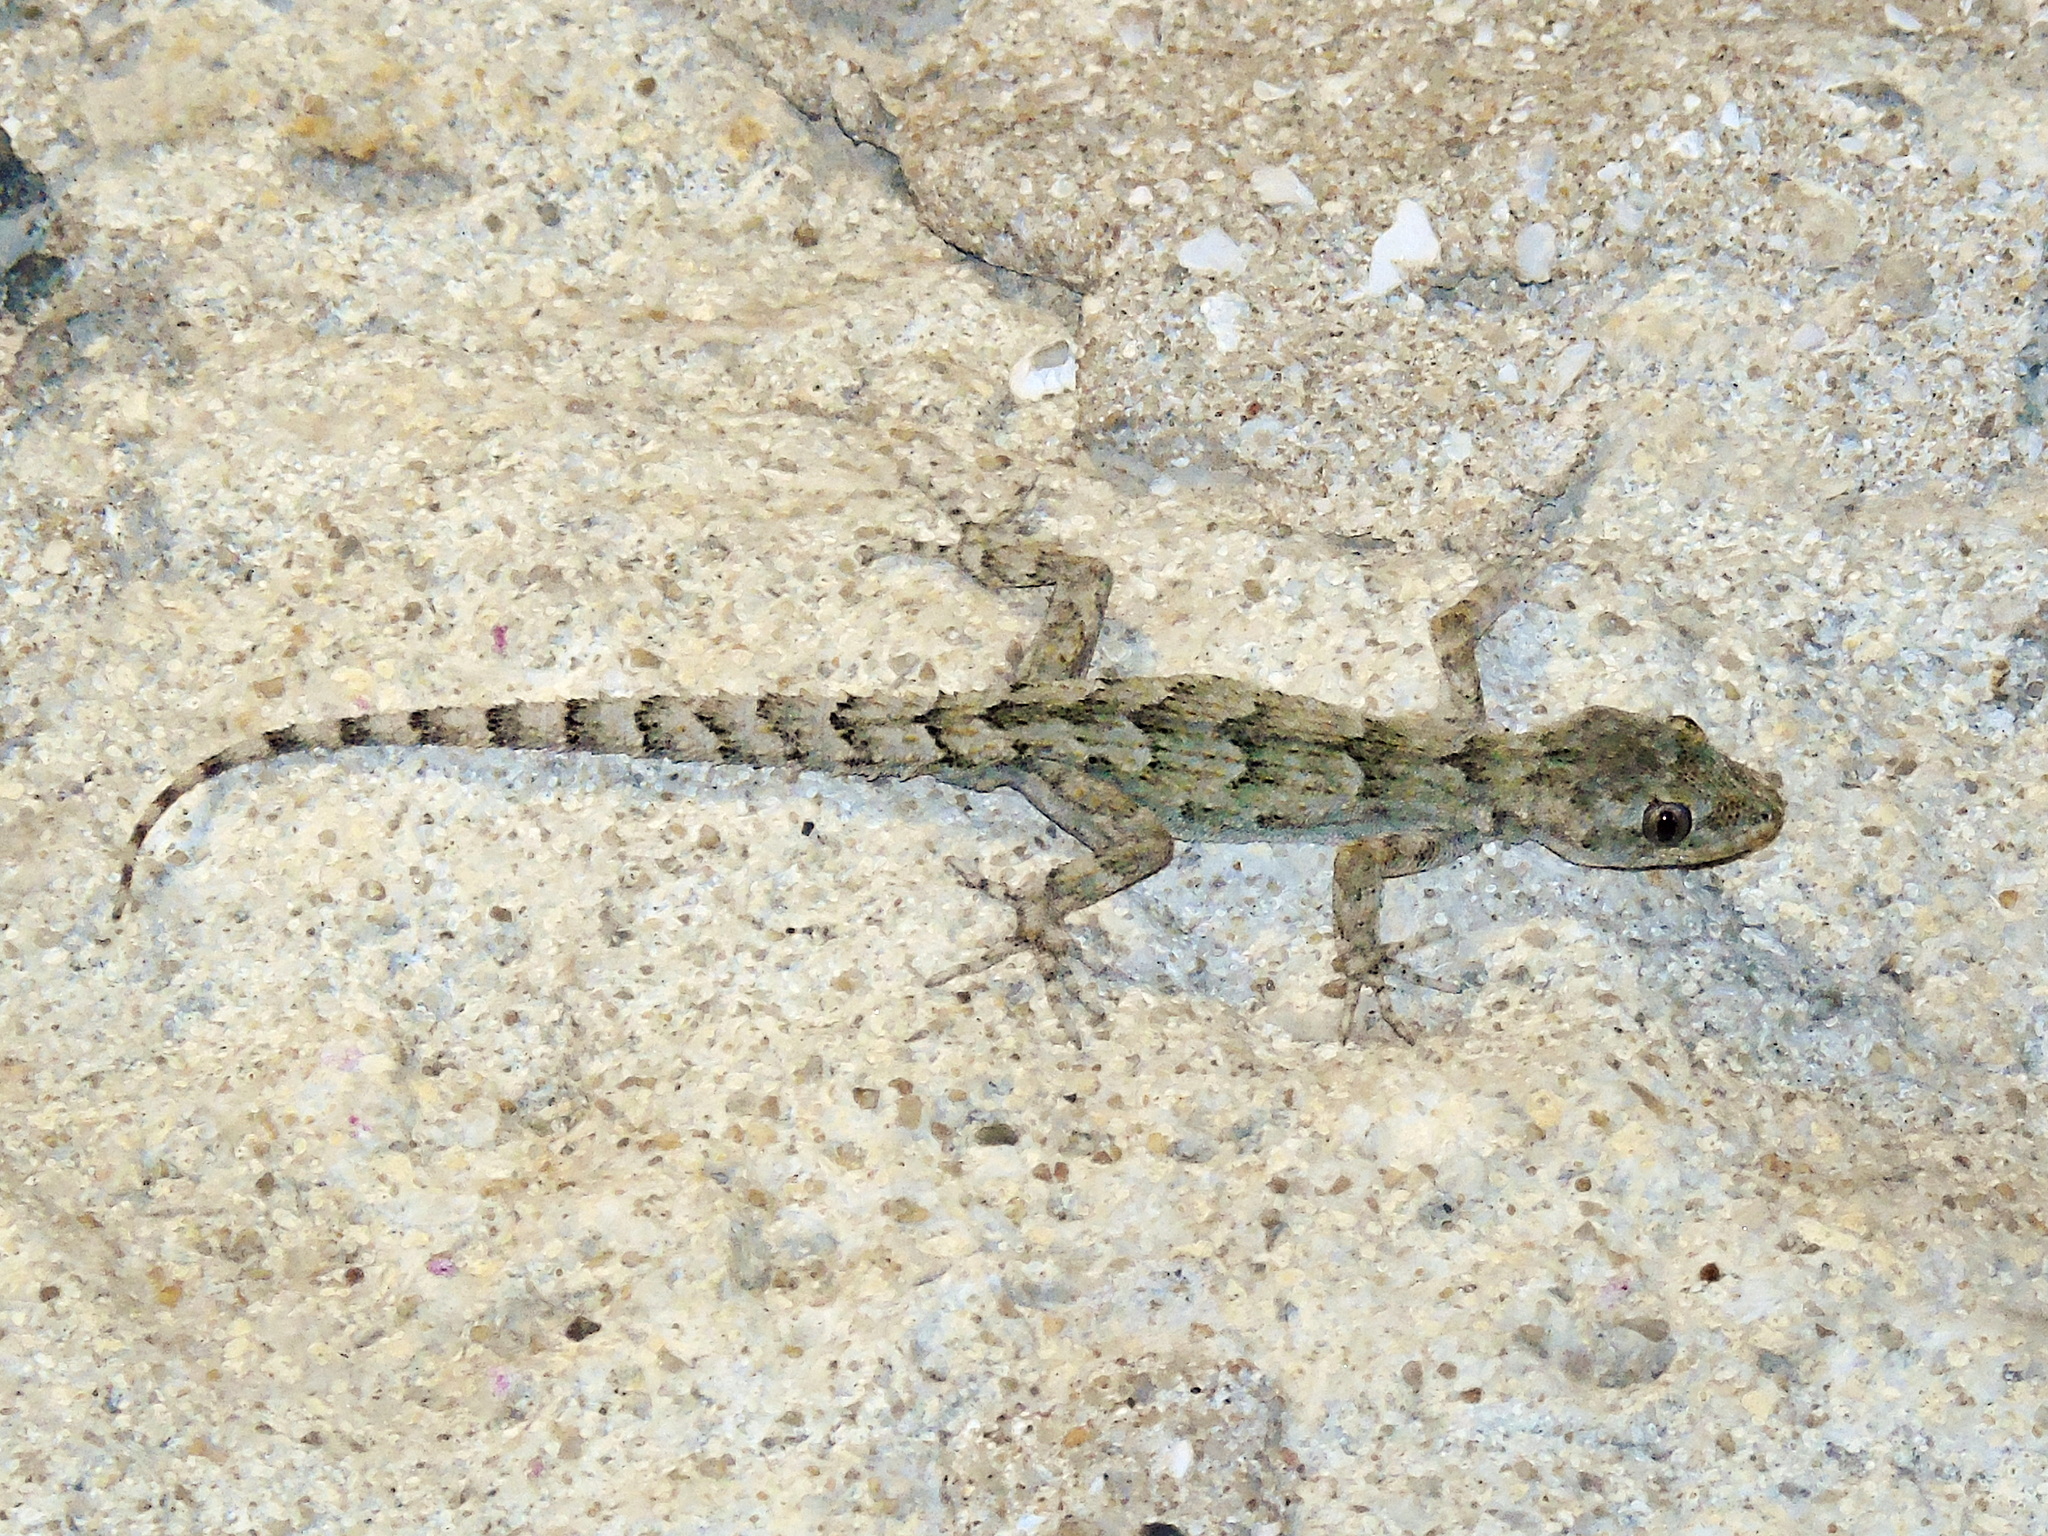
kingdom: Animalia
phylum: Chordata
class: Squamata
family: Gekkonidae
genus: Mediodactylus
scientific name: Mediodactylus danilewskii
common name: Bulgarian bent-toed gecko
